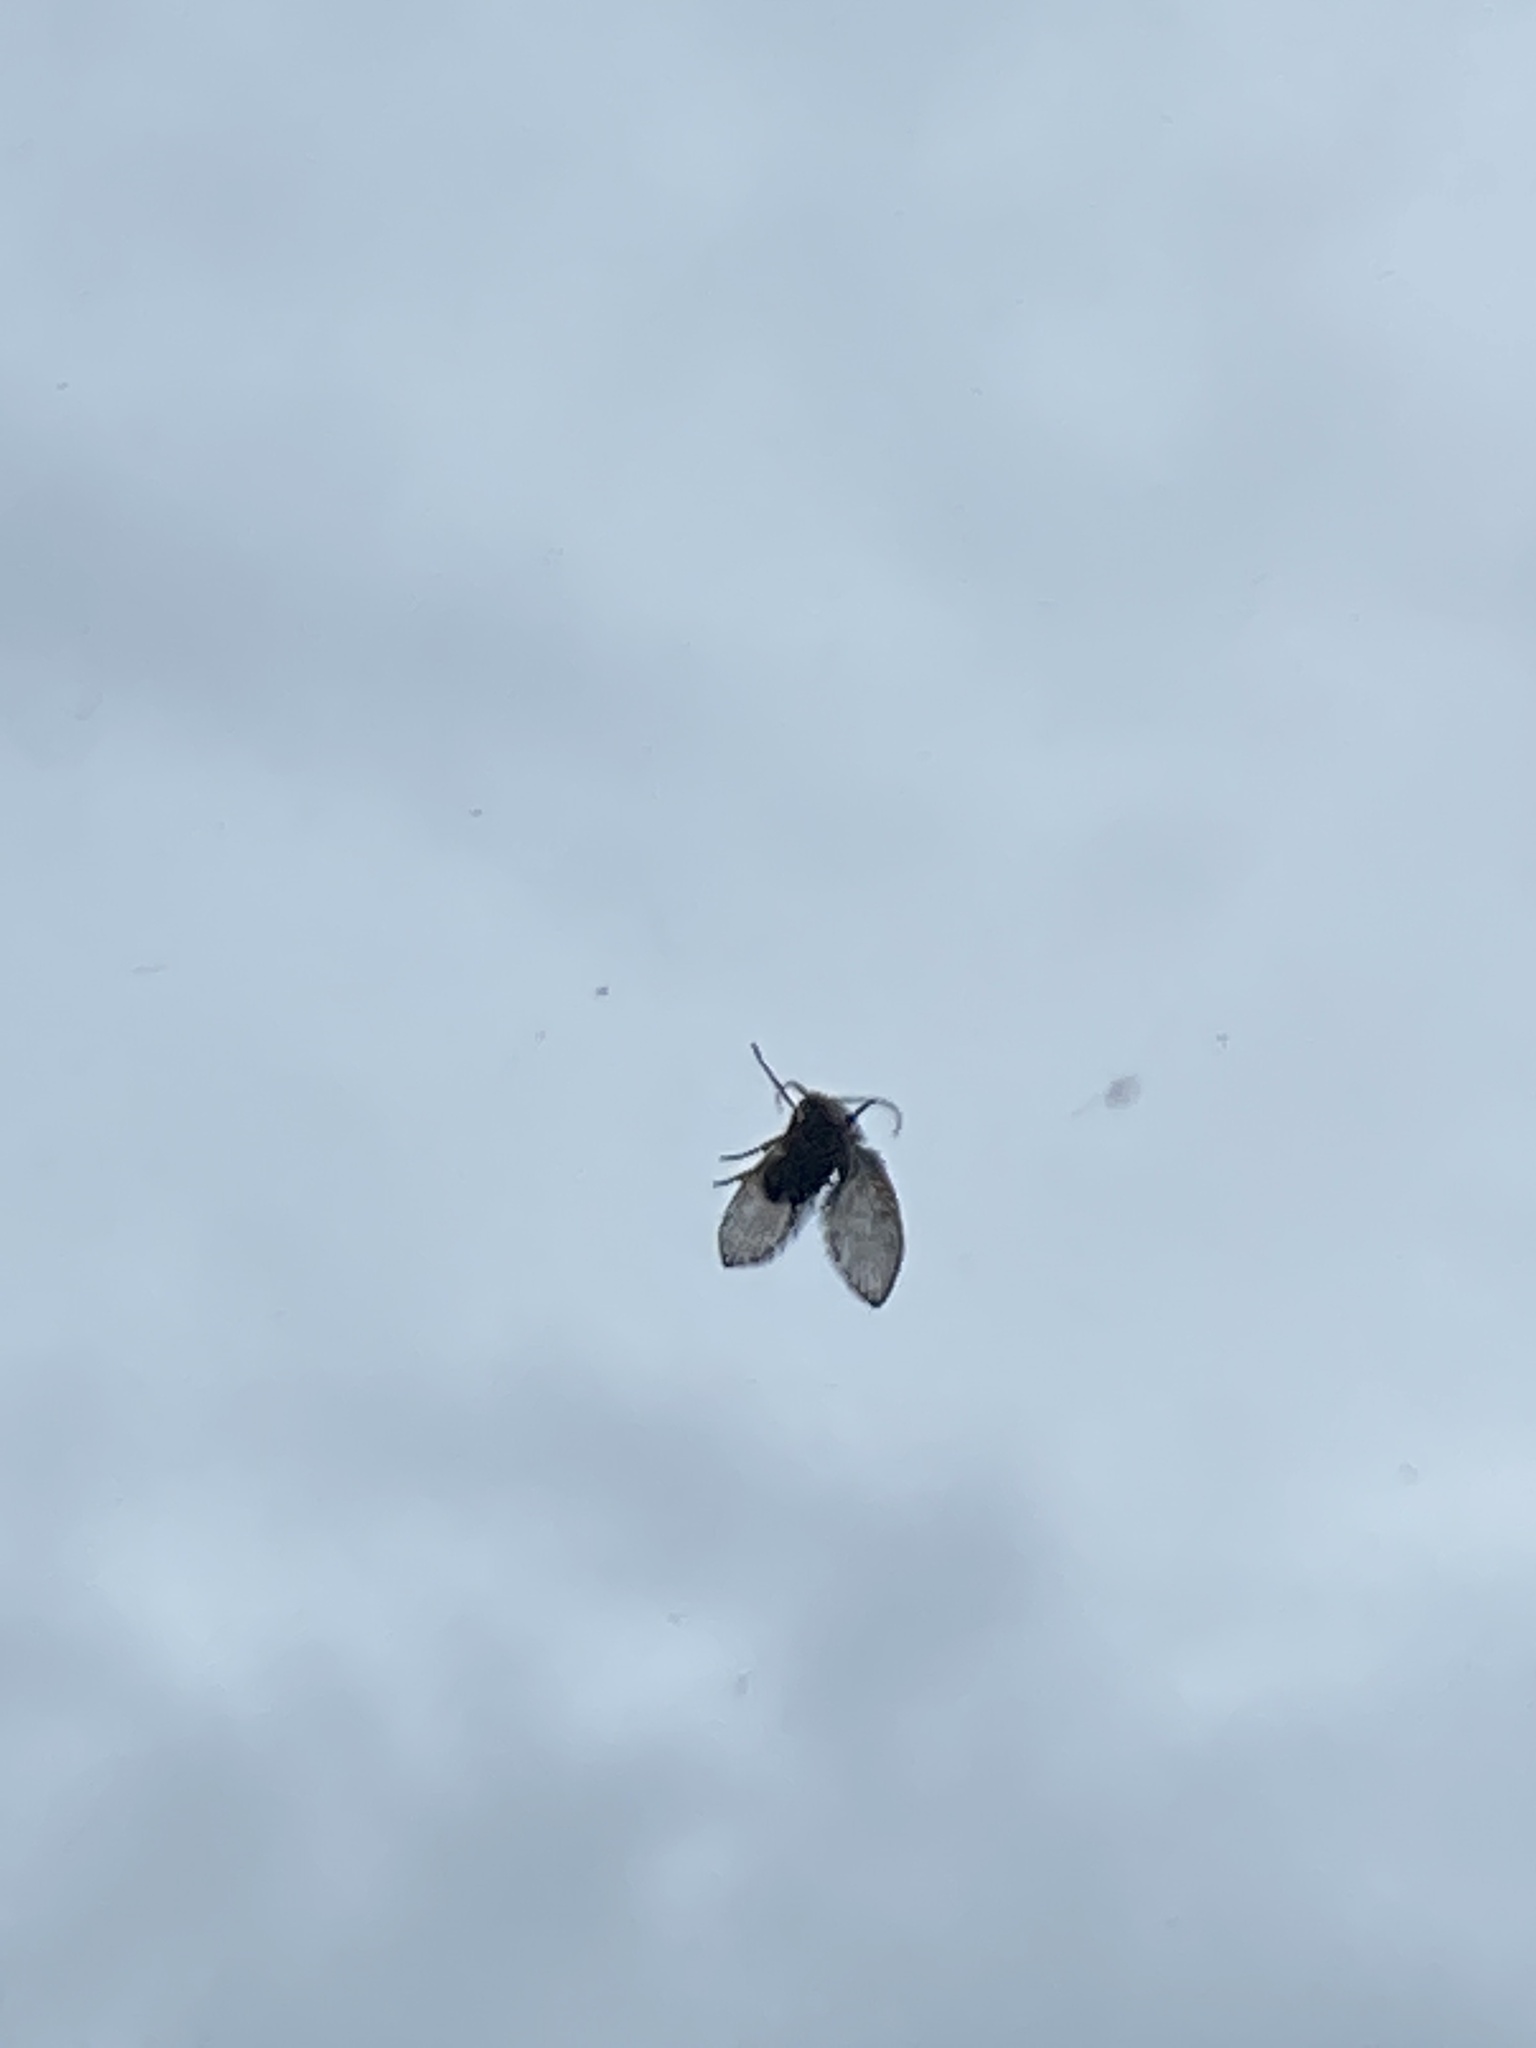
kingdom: Animalia
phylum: Arthropoda
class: Insecta
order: Diptera
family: Psychodidae
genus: Clogmia
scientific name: Clogmia albipunctatus
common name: White-spotted moth fly
